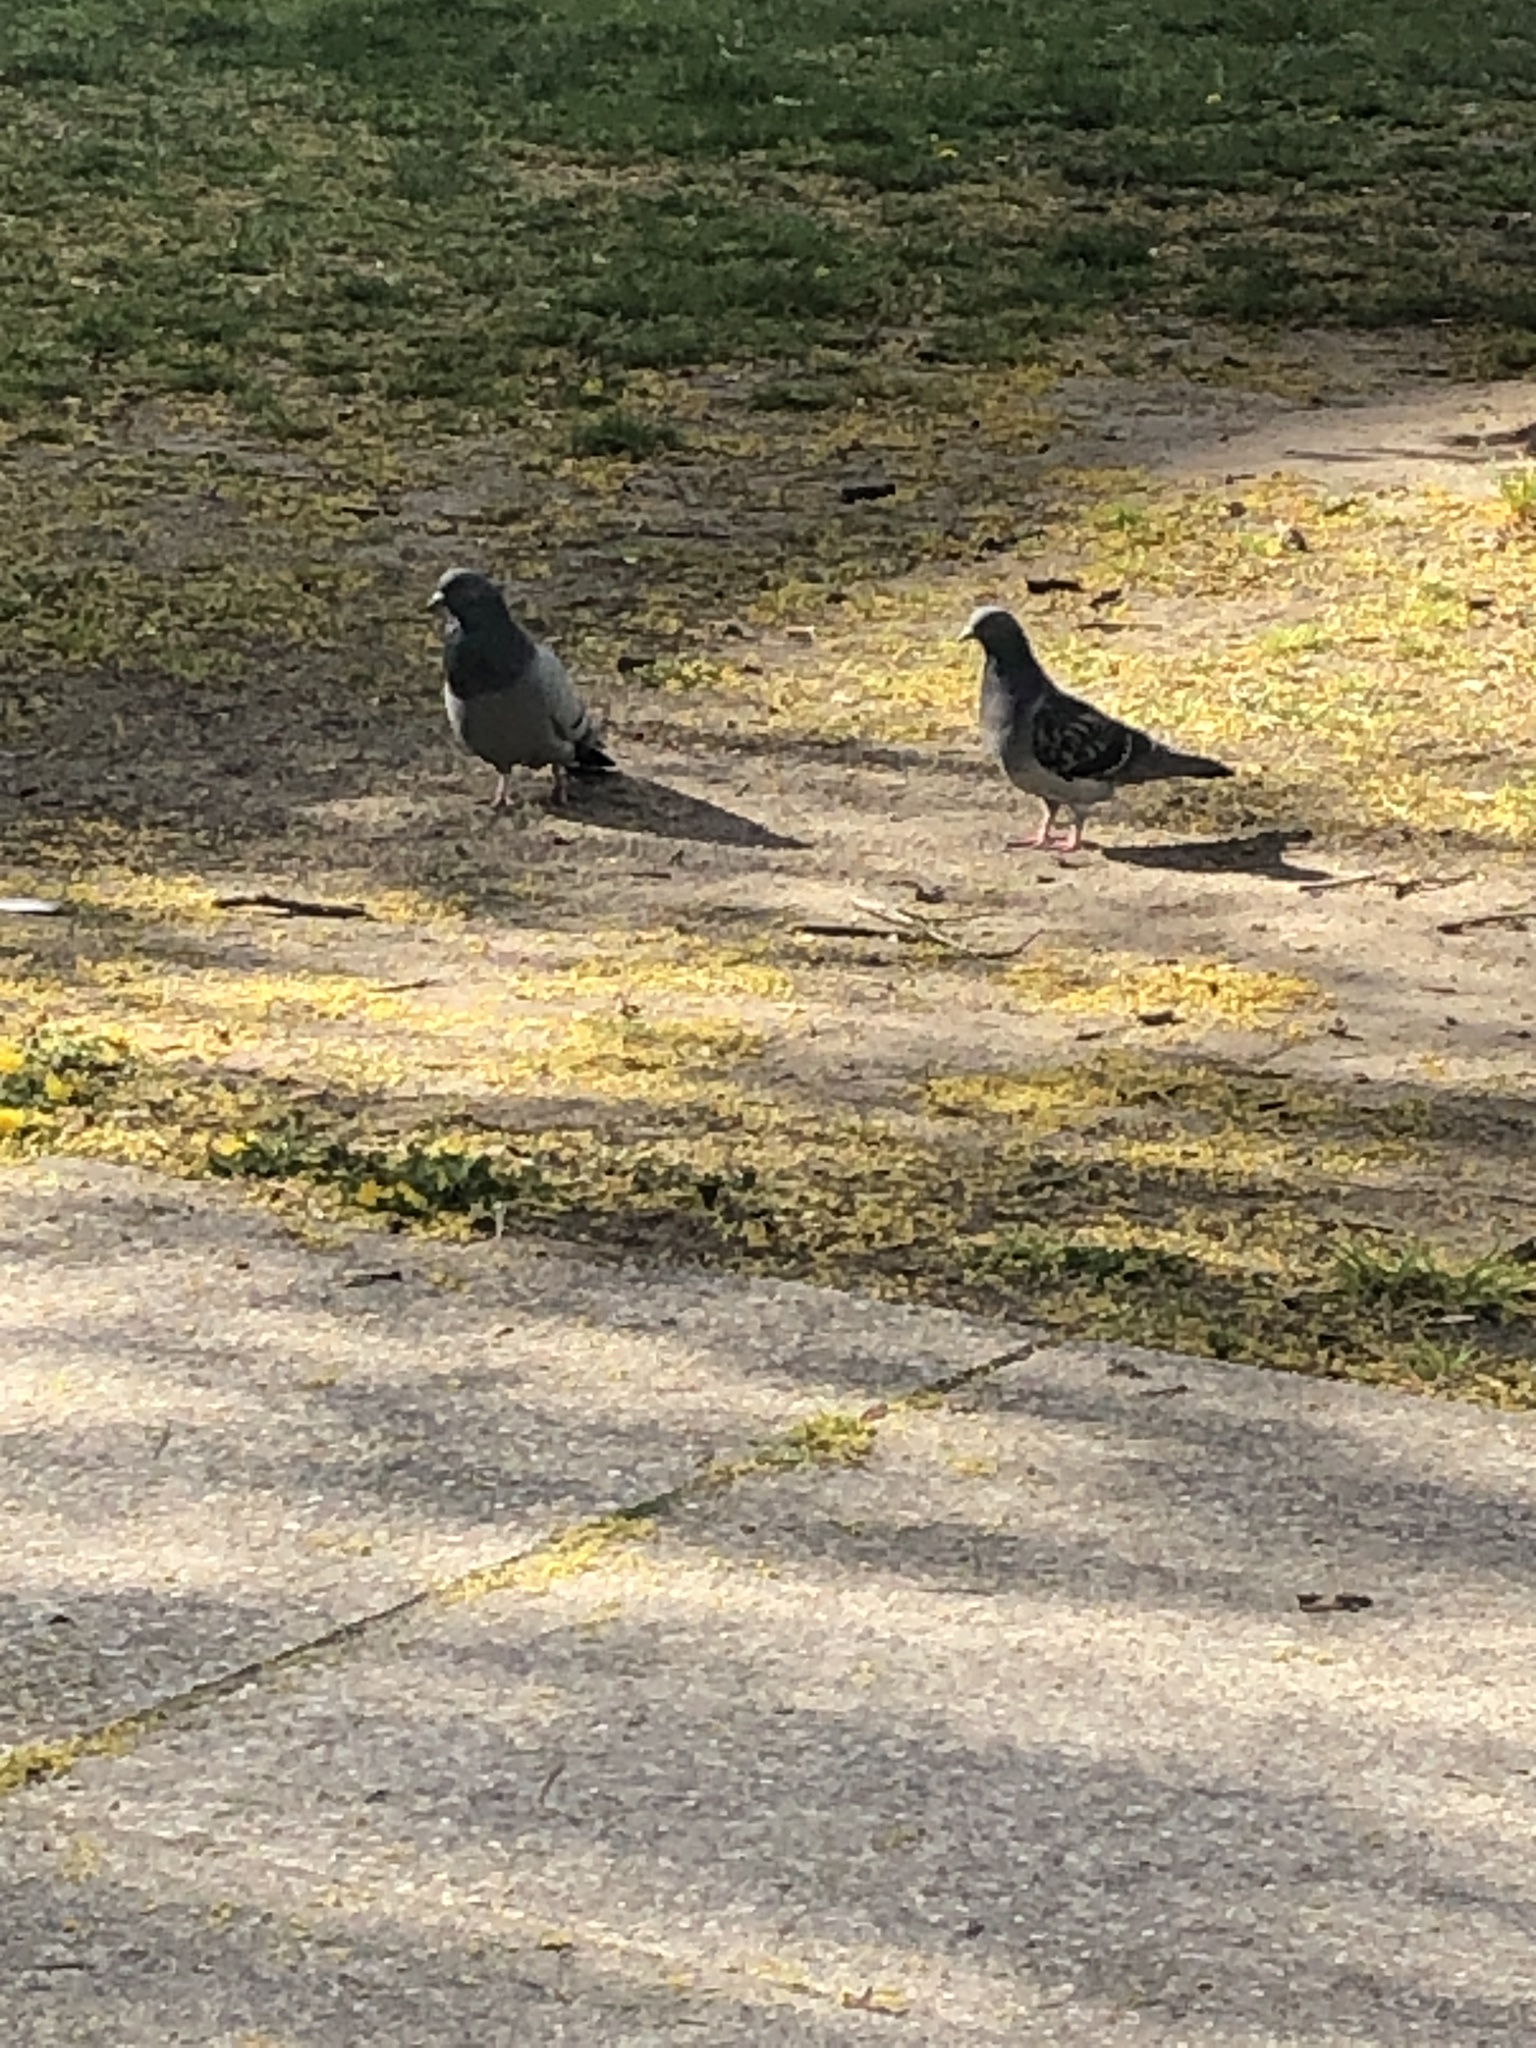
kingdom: Animalia
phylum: Chordata
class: Aves
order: Columbiformes
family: Columbidae
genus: Columba
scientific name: Columba livia
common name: Rock pigeon
